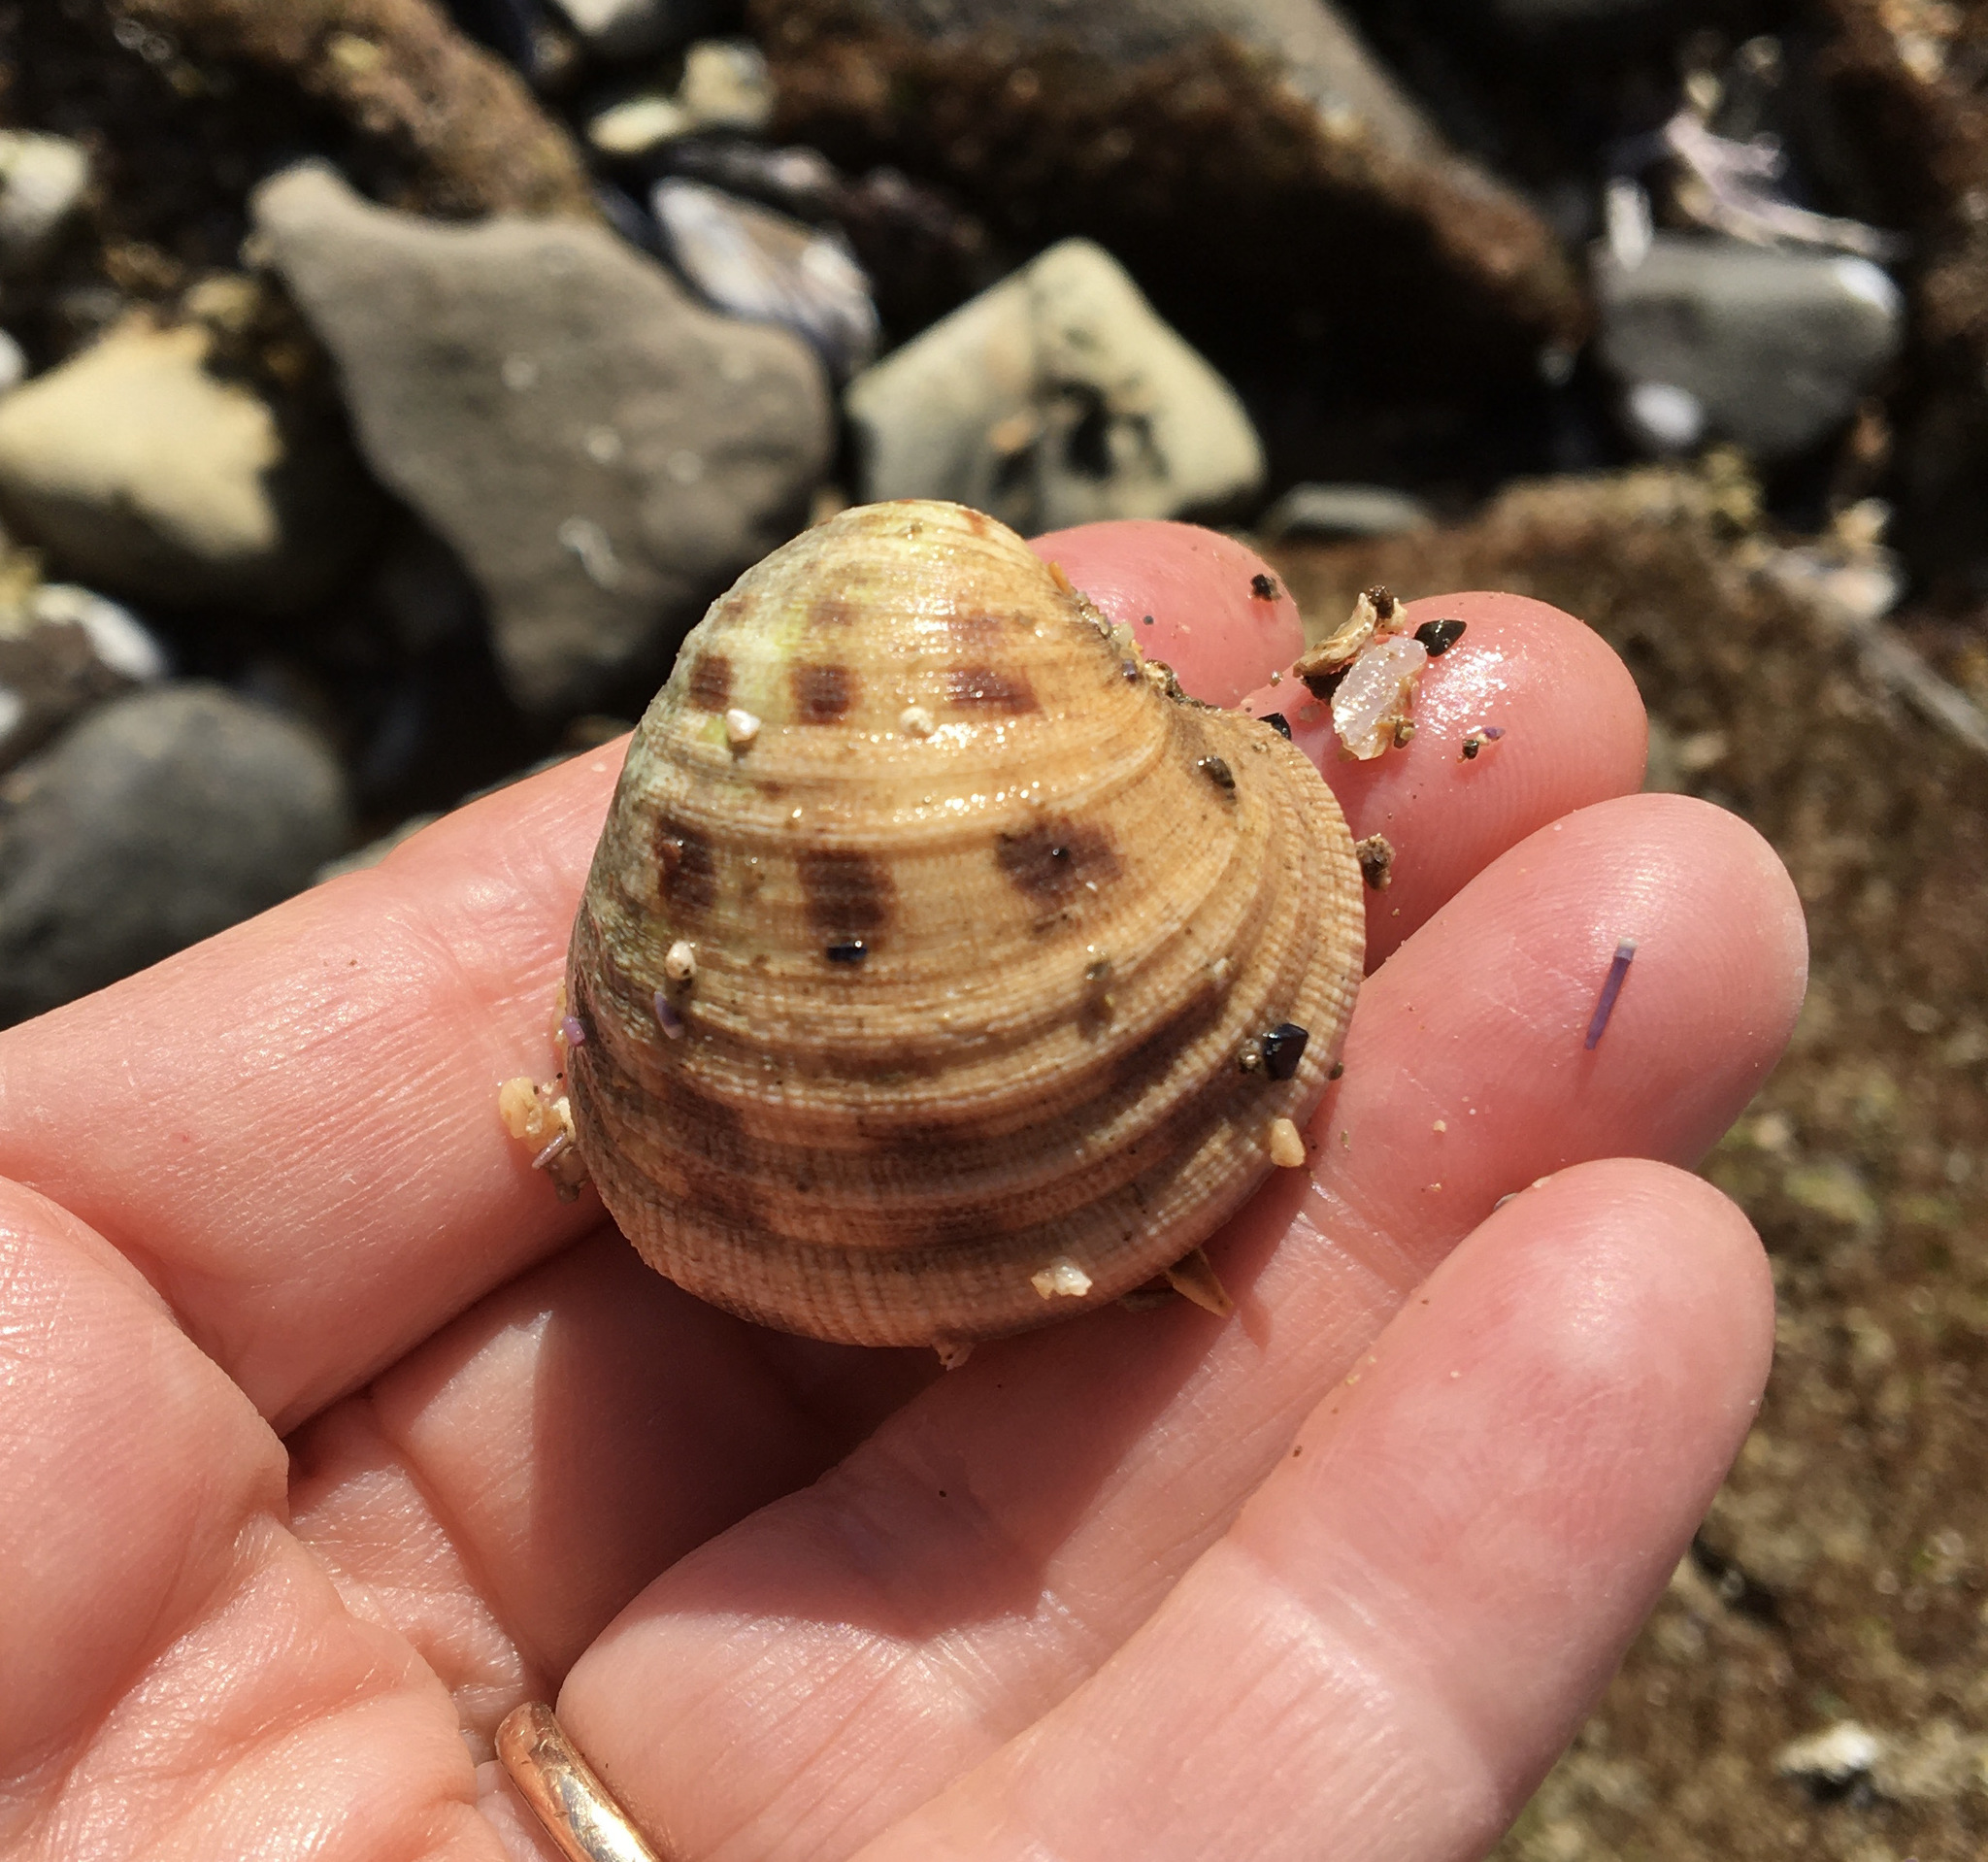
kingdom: Animalia
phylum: Mollusca
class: Bivalvia
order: Venerida
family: Veneridae
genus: Globivenus
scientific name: Globivenus fordii
